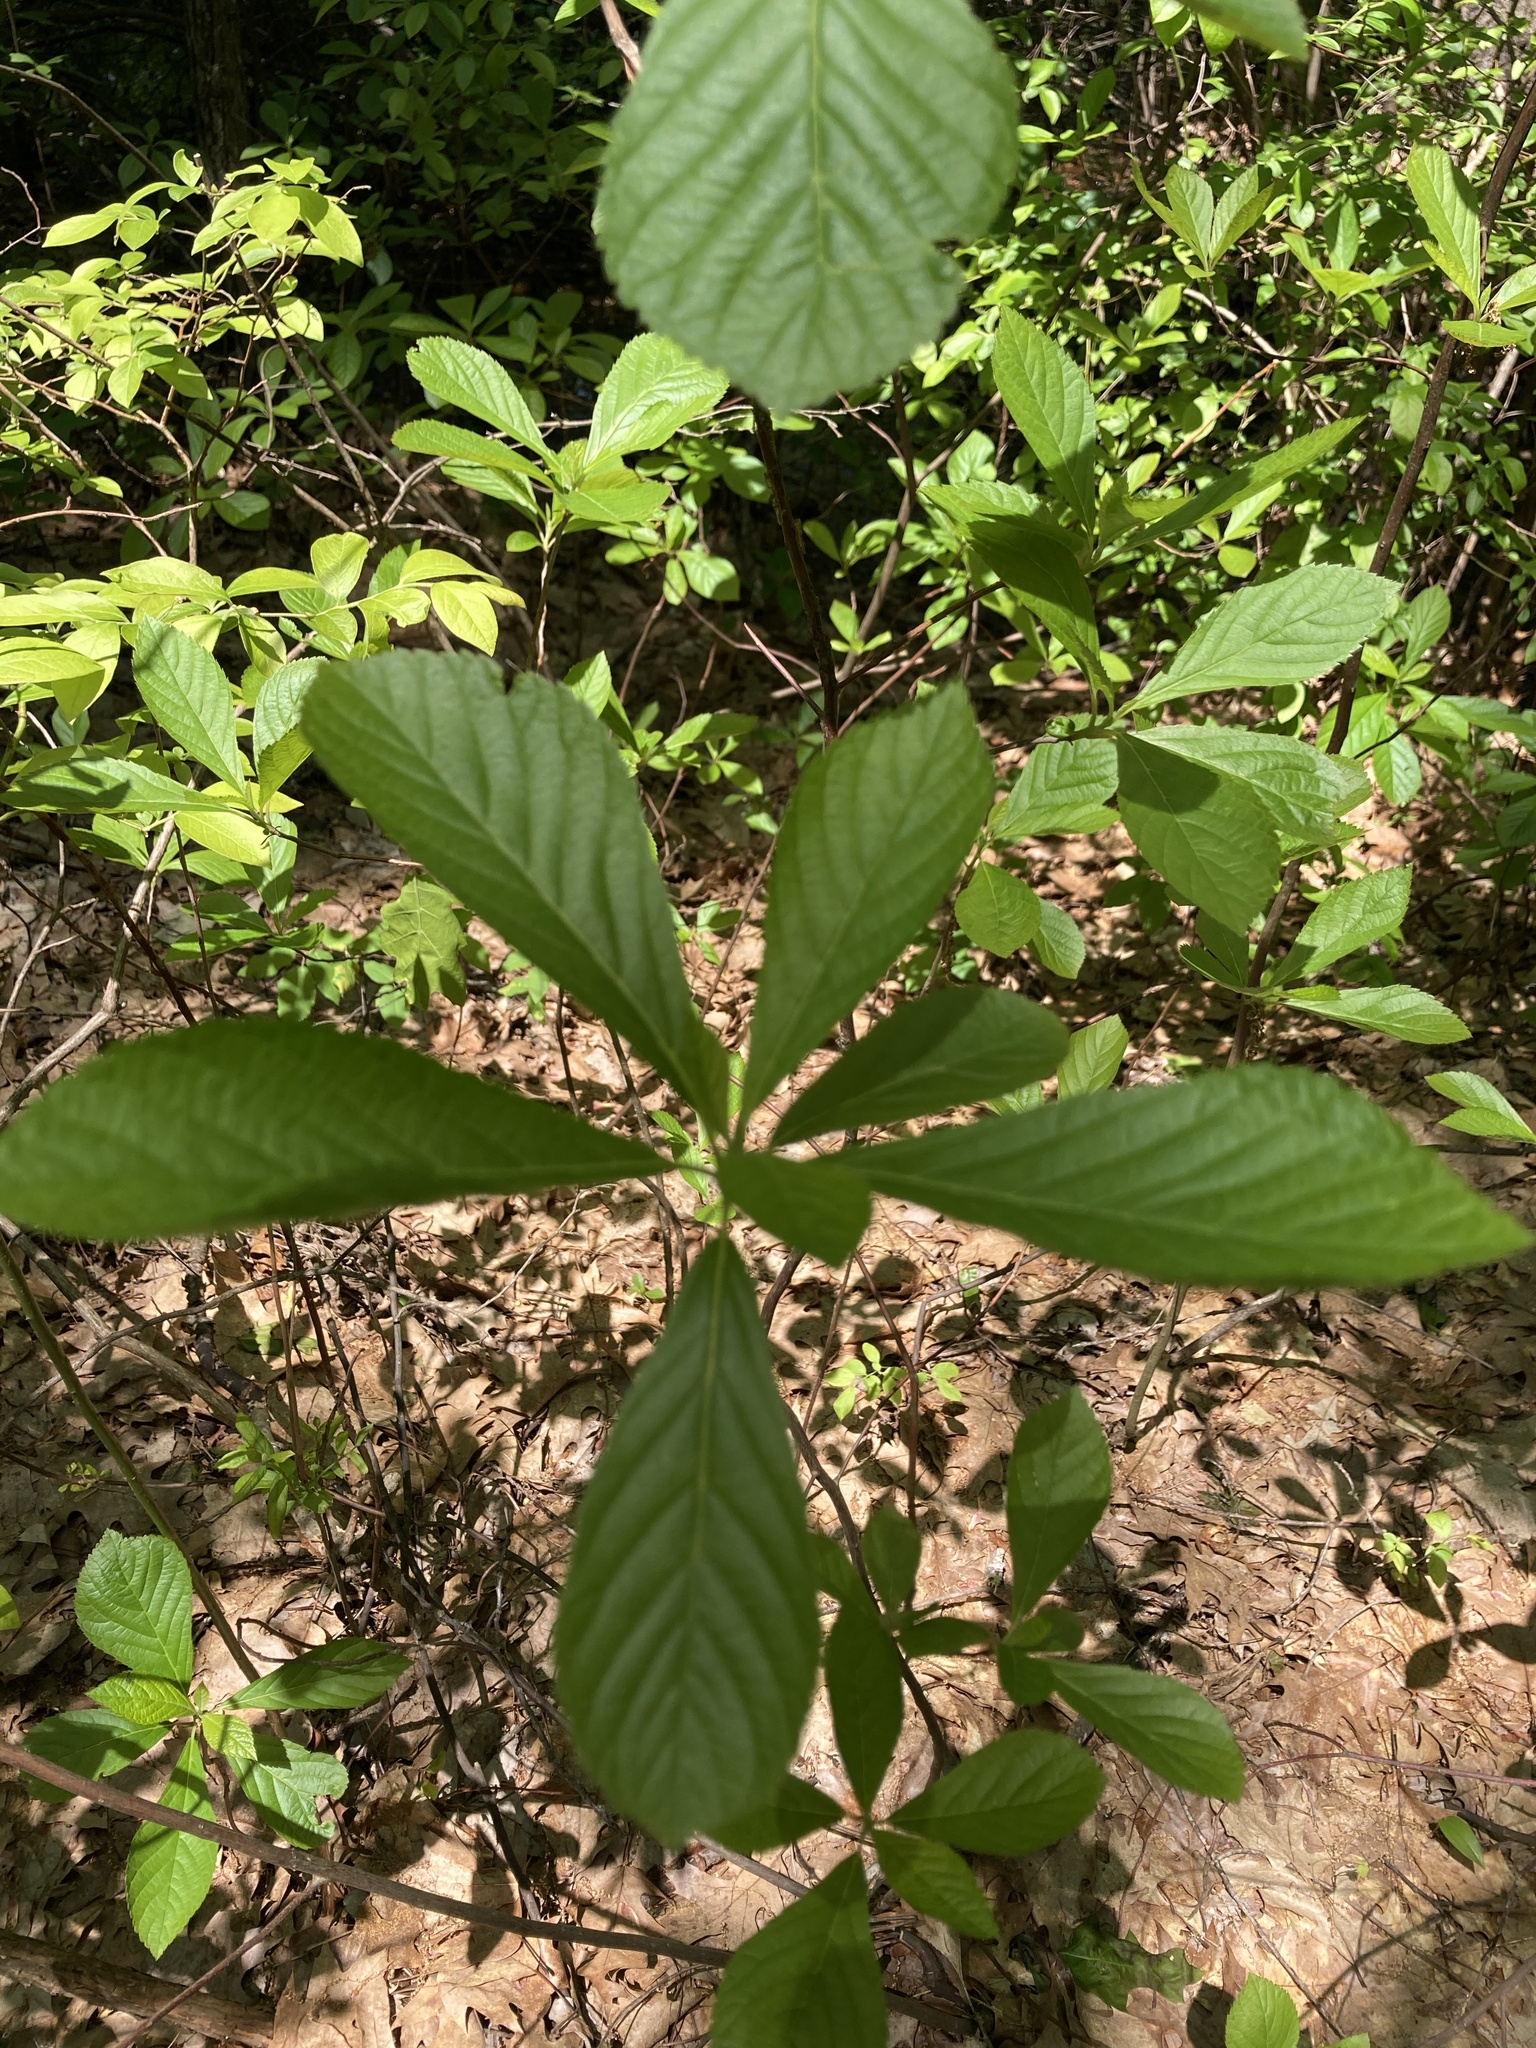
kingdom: Plantae
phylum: Tracheophyta
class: Magnoliopsida
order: Ericales
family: Clethraceae
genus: Clethra
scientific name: Clethra alnifolia
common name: Sweet pepperbush
